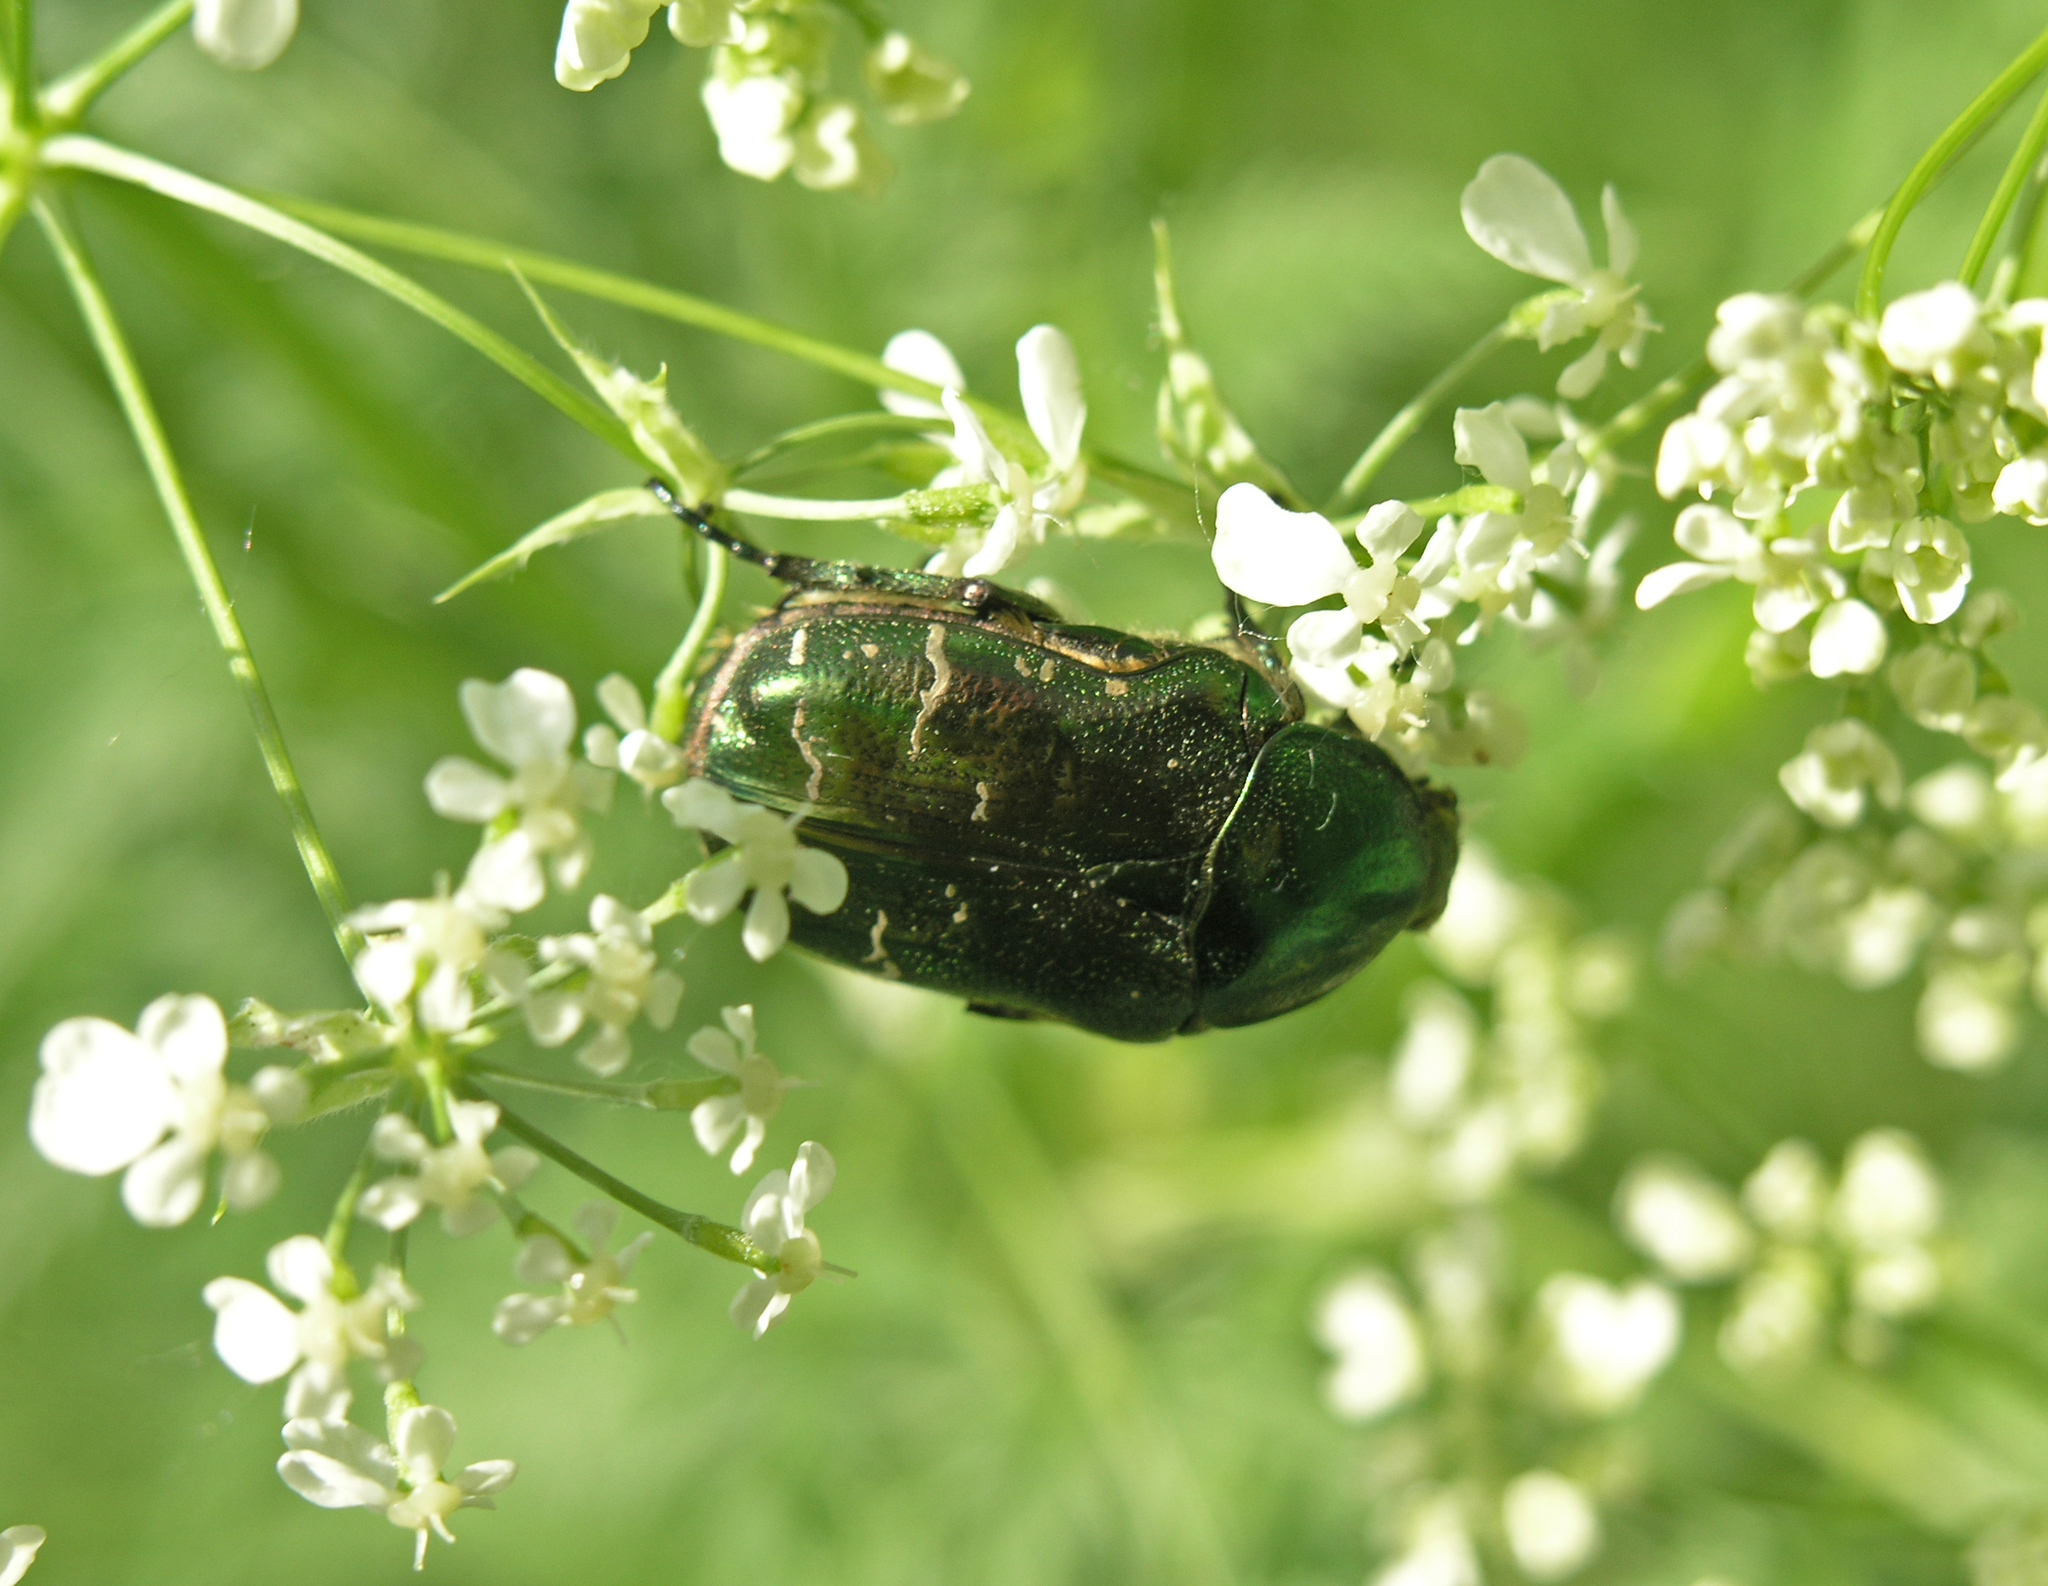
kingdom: Animalia
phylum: Arthropoda
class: Insecta
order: Coleoptera
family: Scarabaeidae
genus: Cetonia
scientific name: Cetonia aurata
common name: Rose chafer
